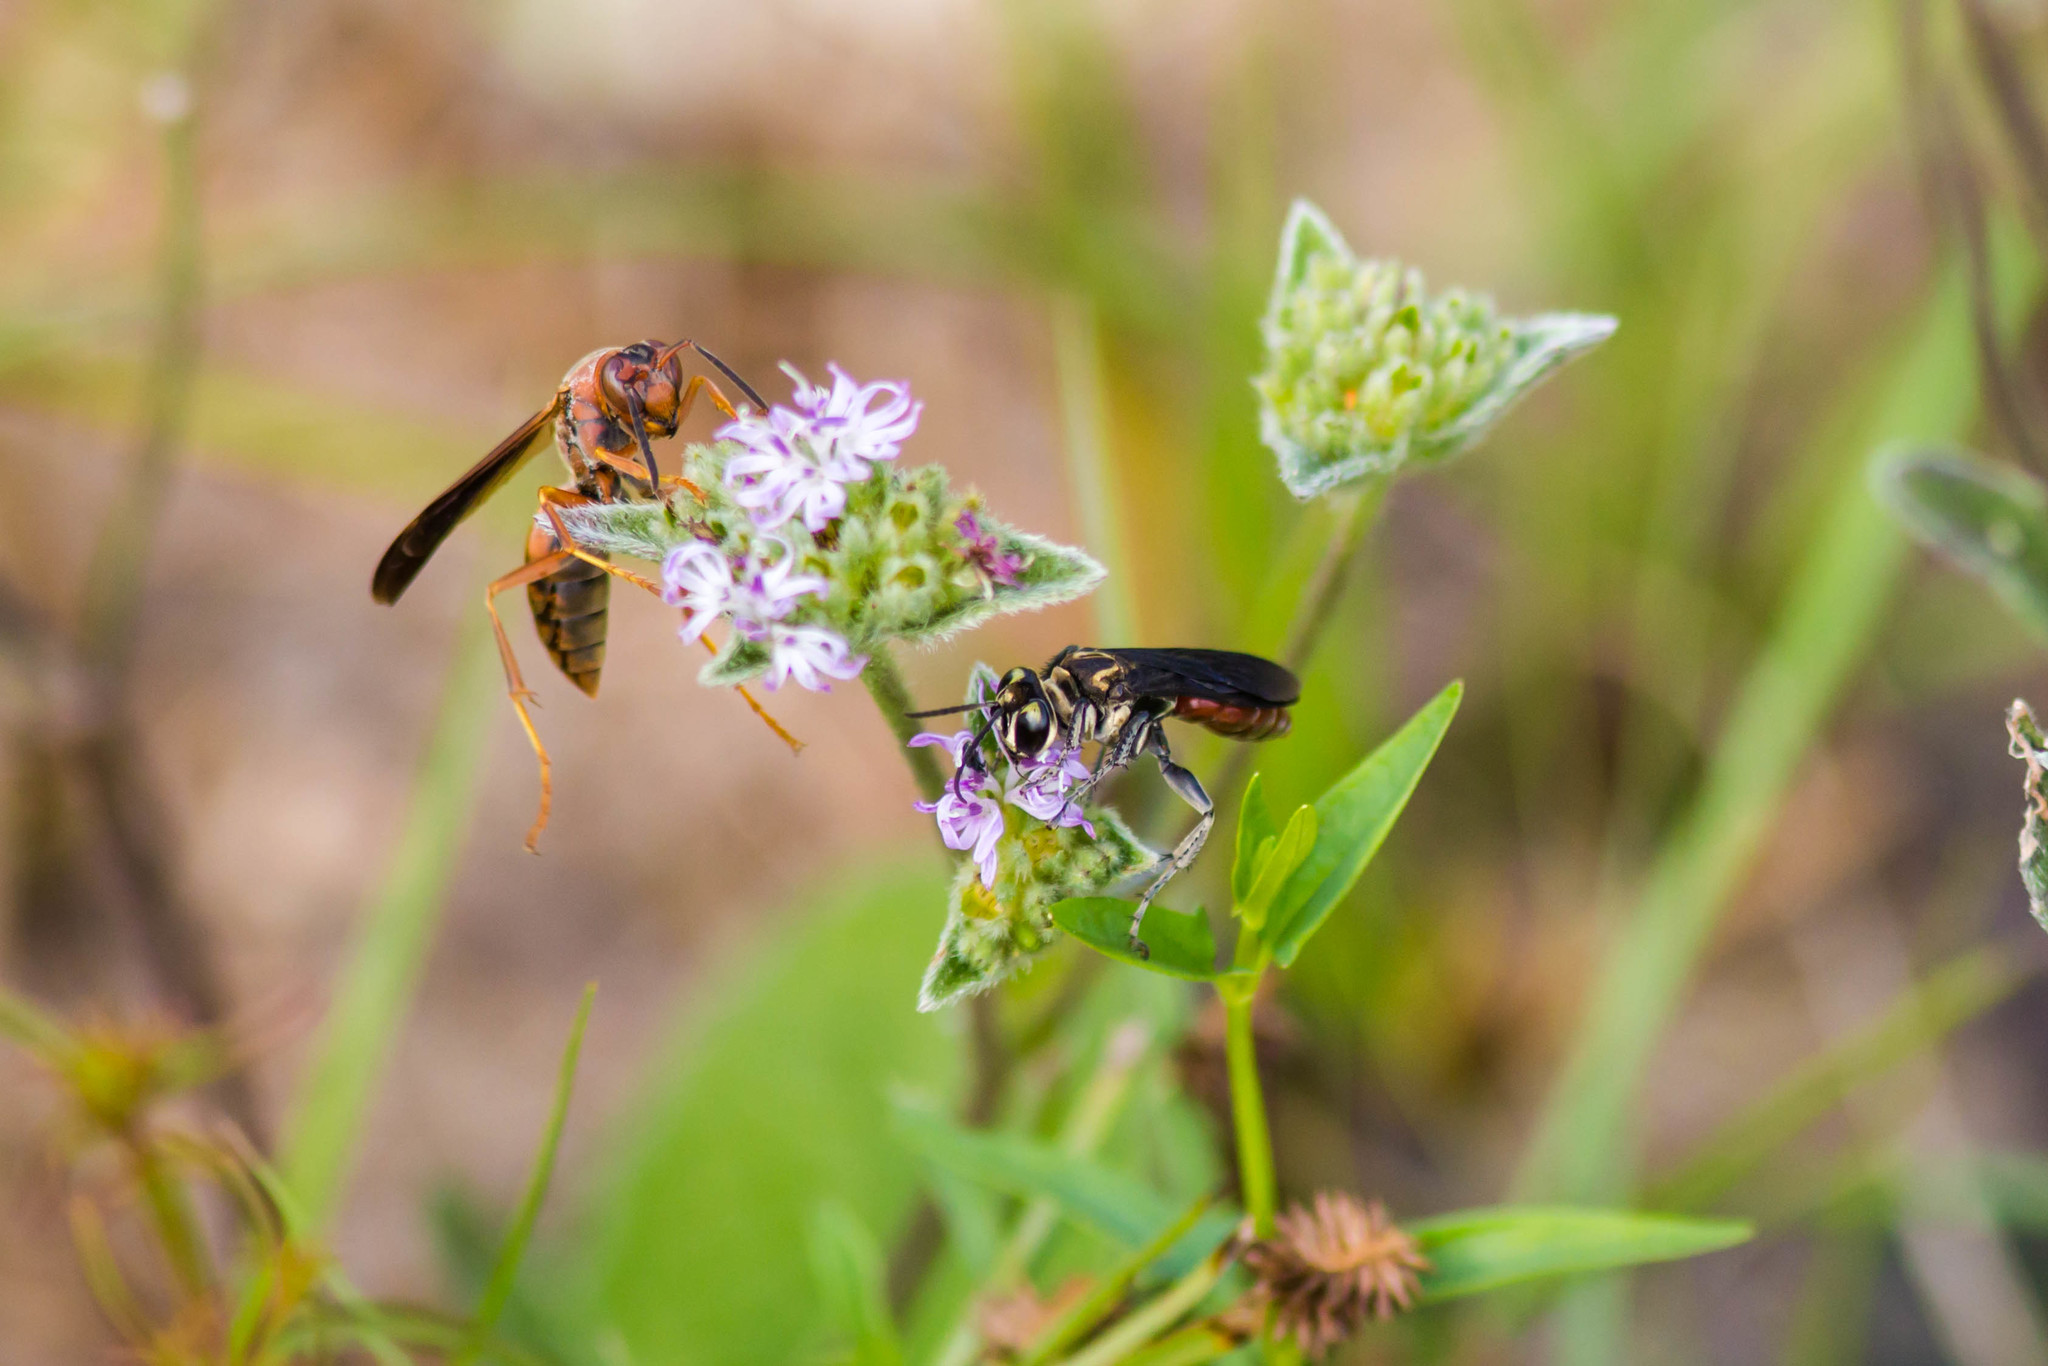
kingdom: Animalia
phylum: Arthropoda
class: Insecta
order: Hymenoptera
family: Crabronidae
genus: Larra
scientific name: Larra bicolor
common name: Wasp
